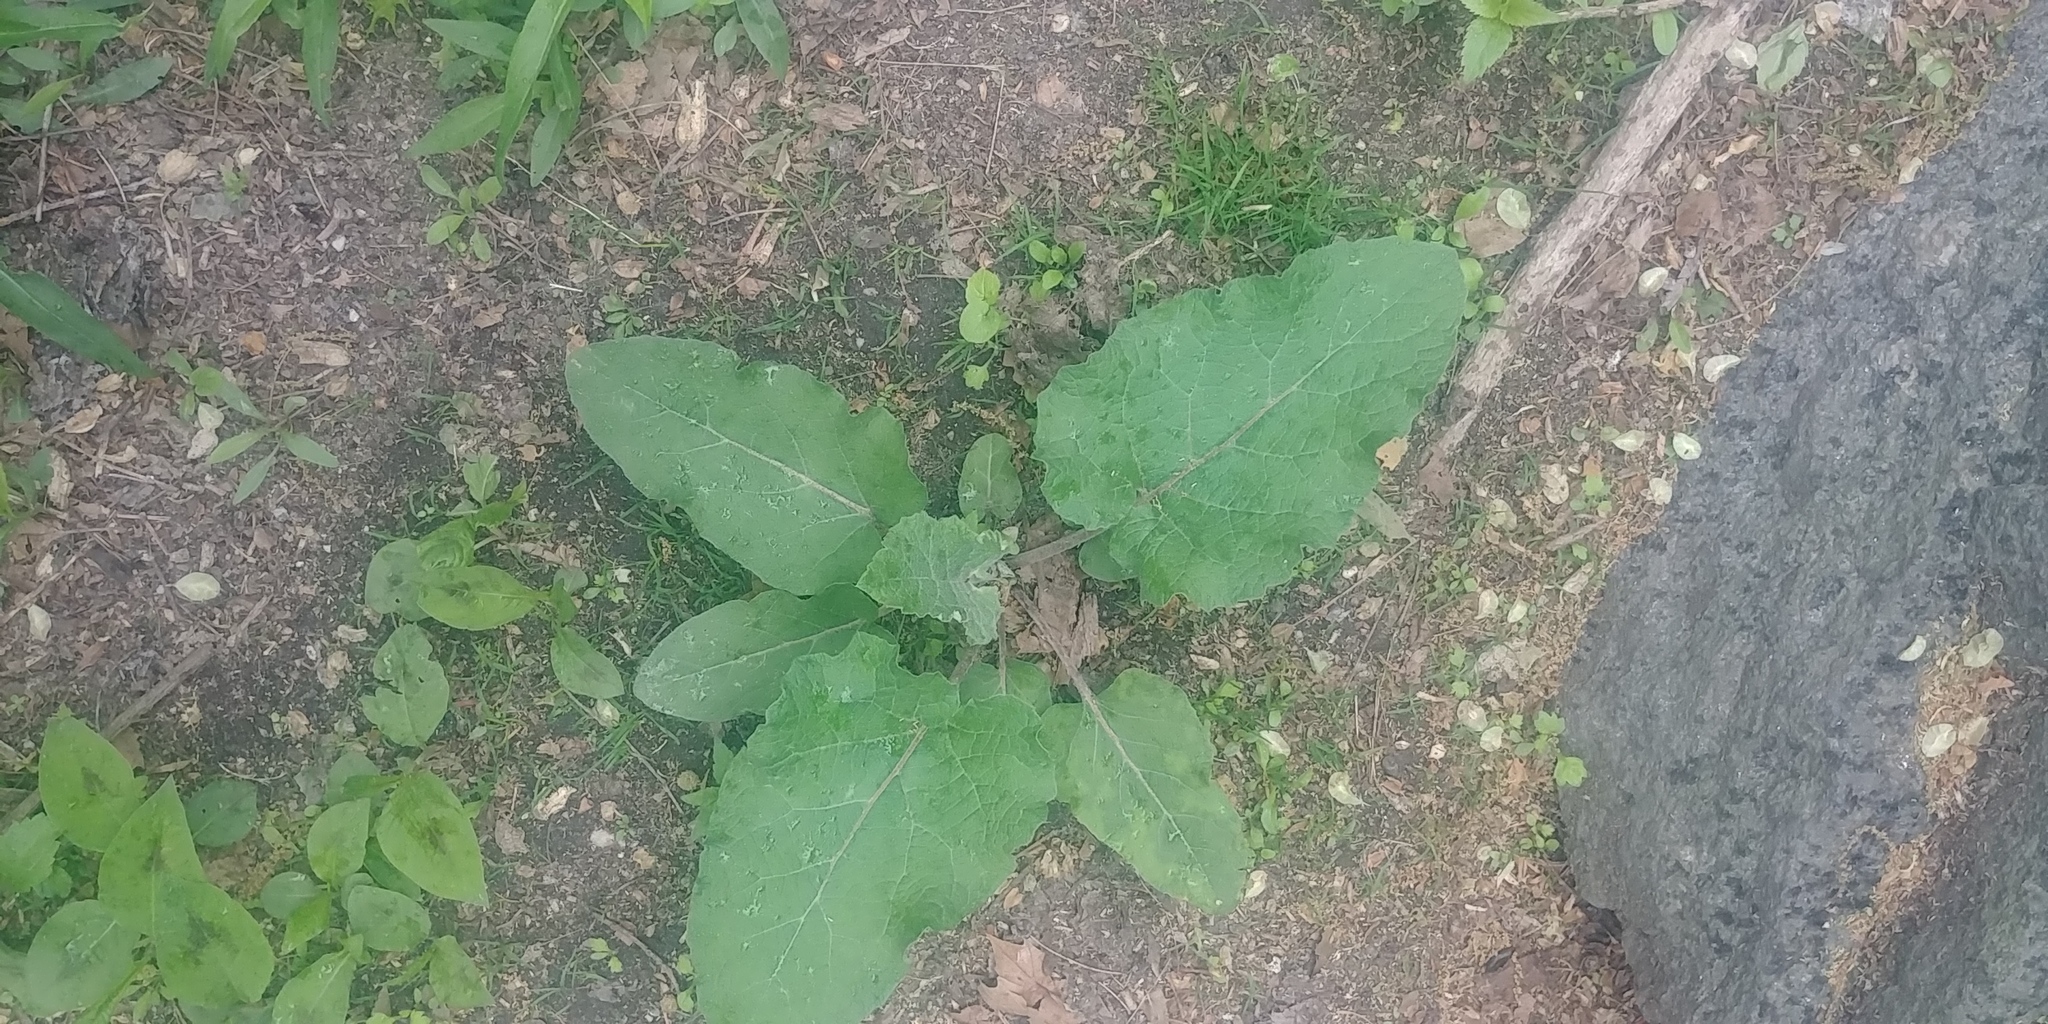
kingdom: Plantae
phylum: Tracheophyta
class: Magnoliopsida
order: Asterales
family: Asteraceae
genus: Arctium
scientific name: Arctium
